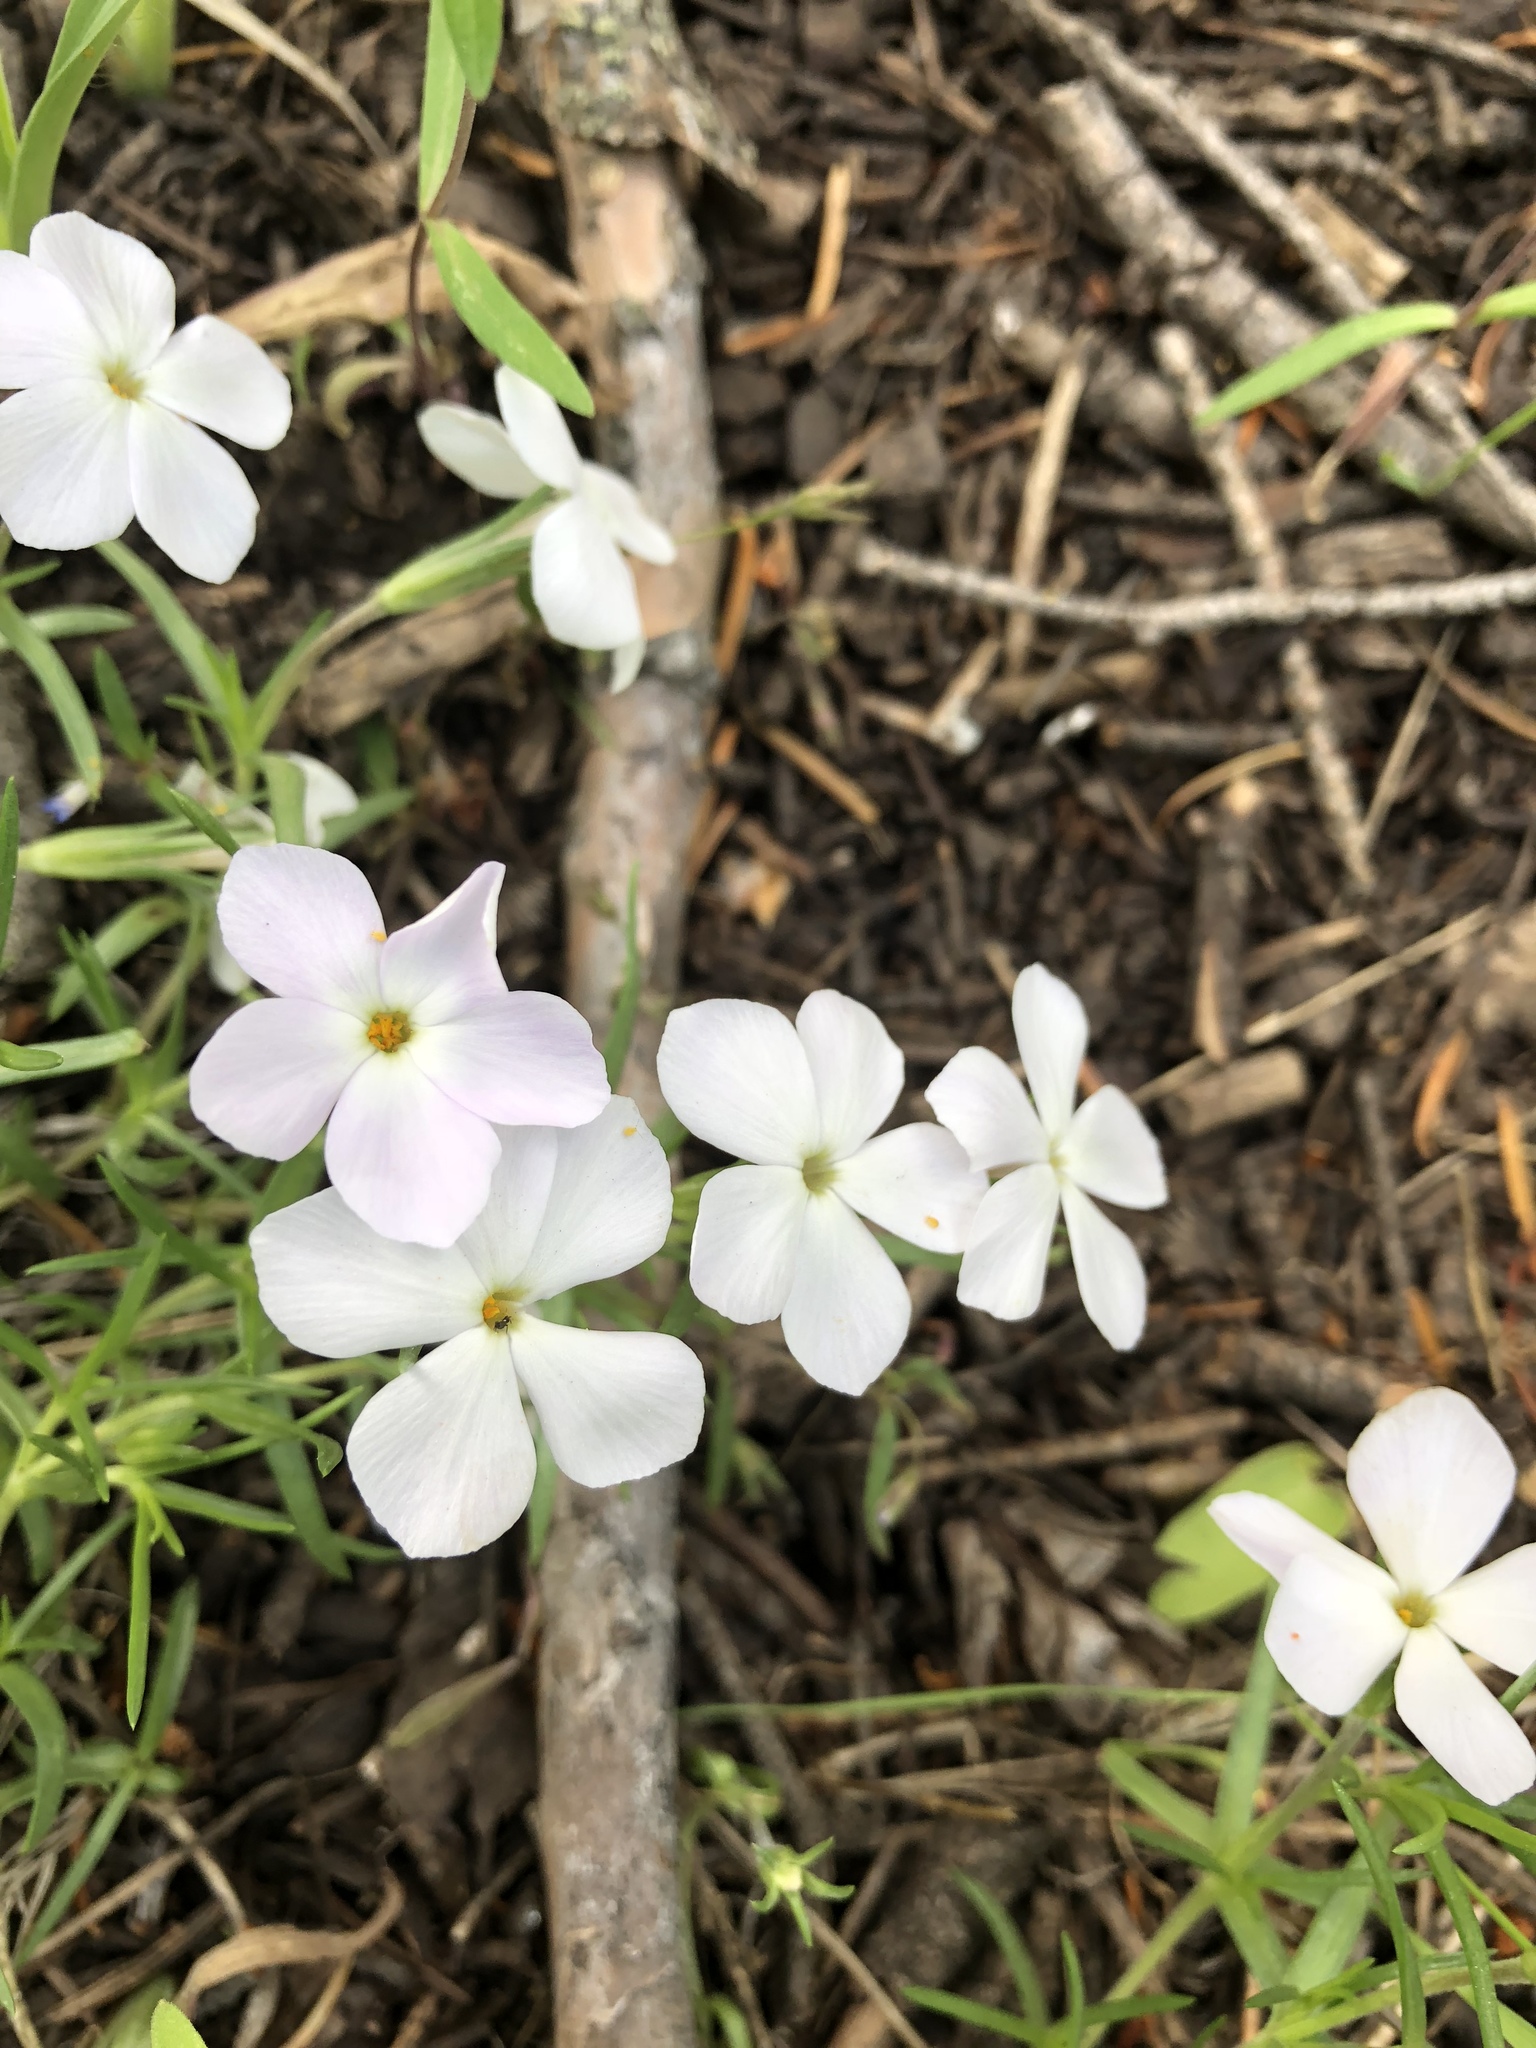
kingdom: Plantae
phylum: Tracheophyta
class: Magnoliopsida
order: Ericales
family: Polemoniaceae
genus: Phlox
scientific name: Phlox multiflora
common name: Rocky mountain phlox
